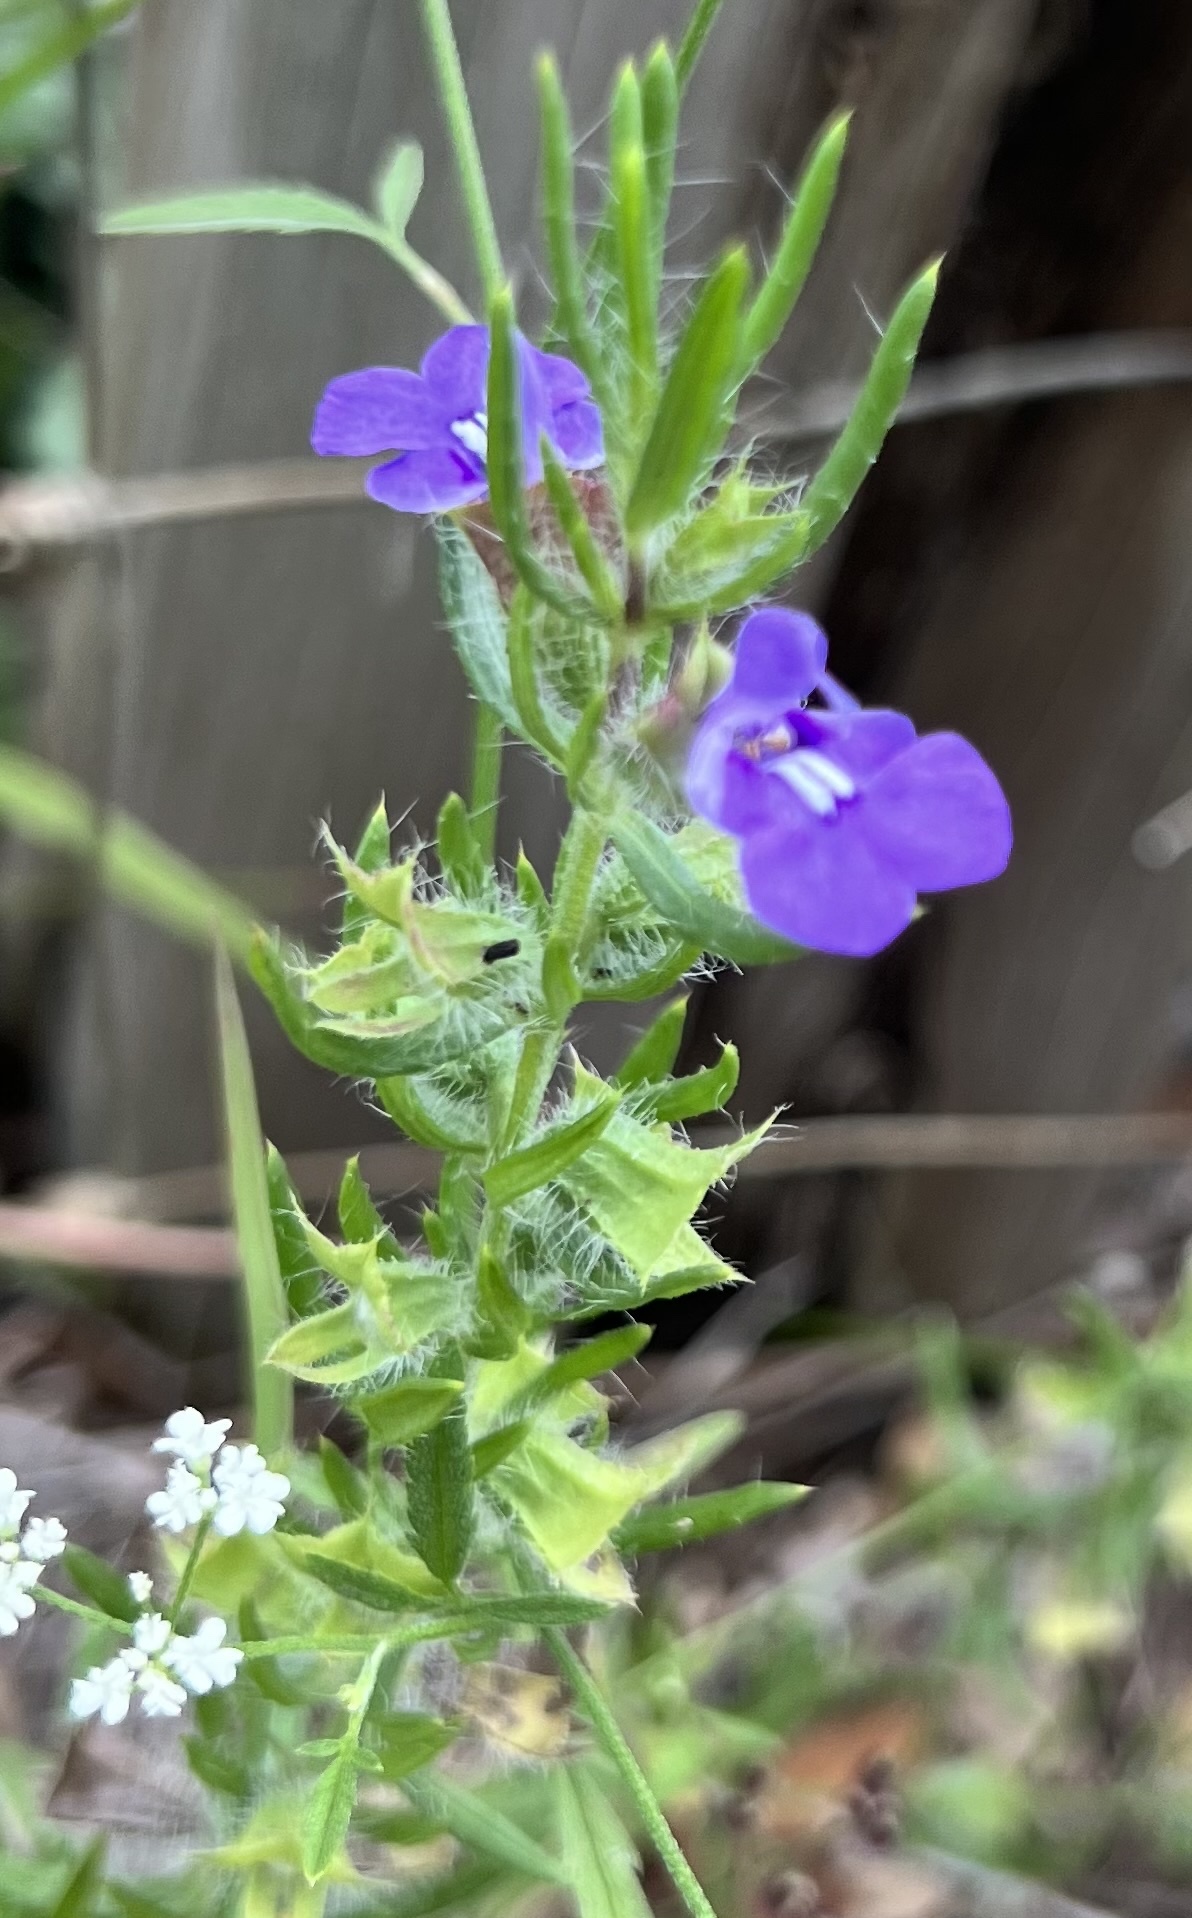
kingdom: Plantae
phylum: Tracheophyta
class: Magnoliopsida
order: Lamiales
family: Lamiaceae
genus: Salvia
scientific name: Salvia texana
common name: Texas sage
